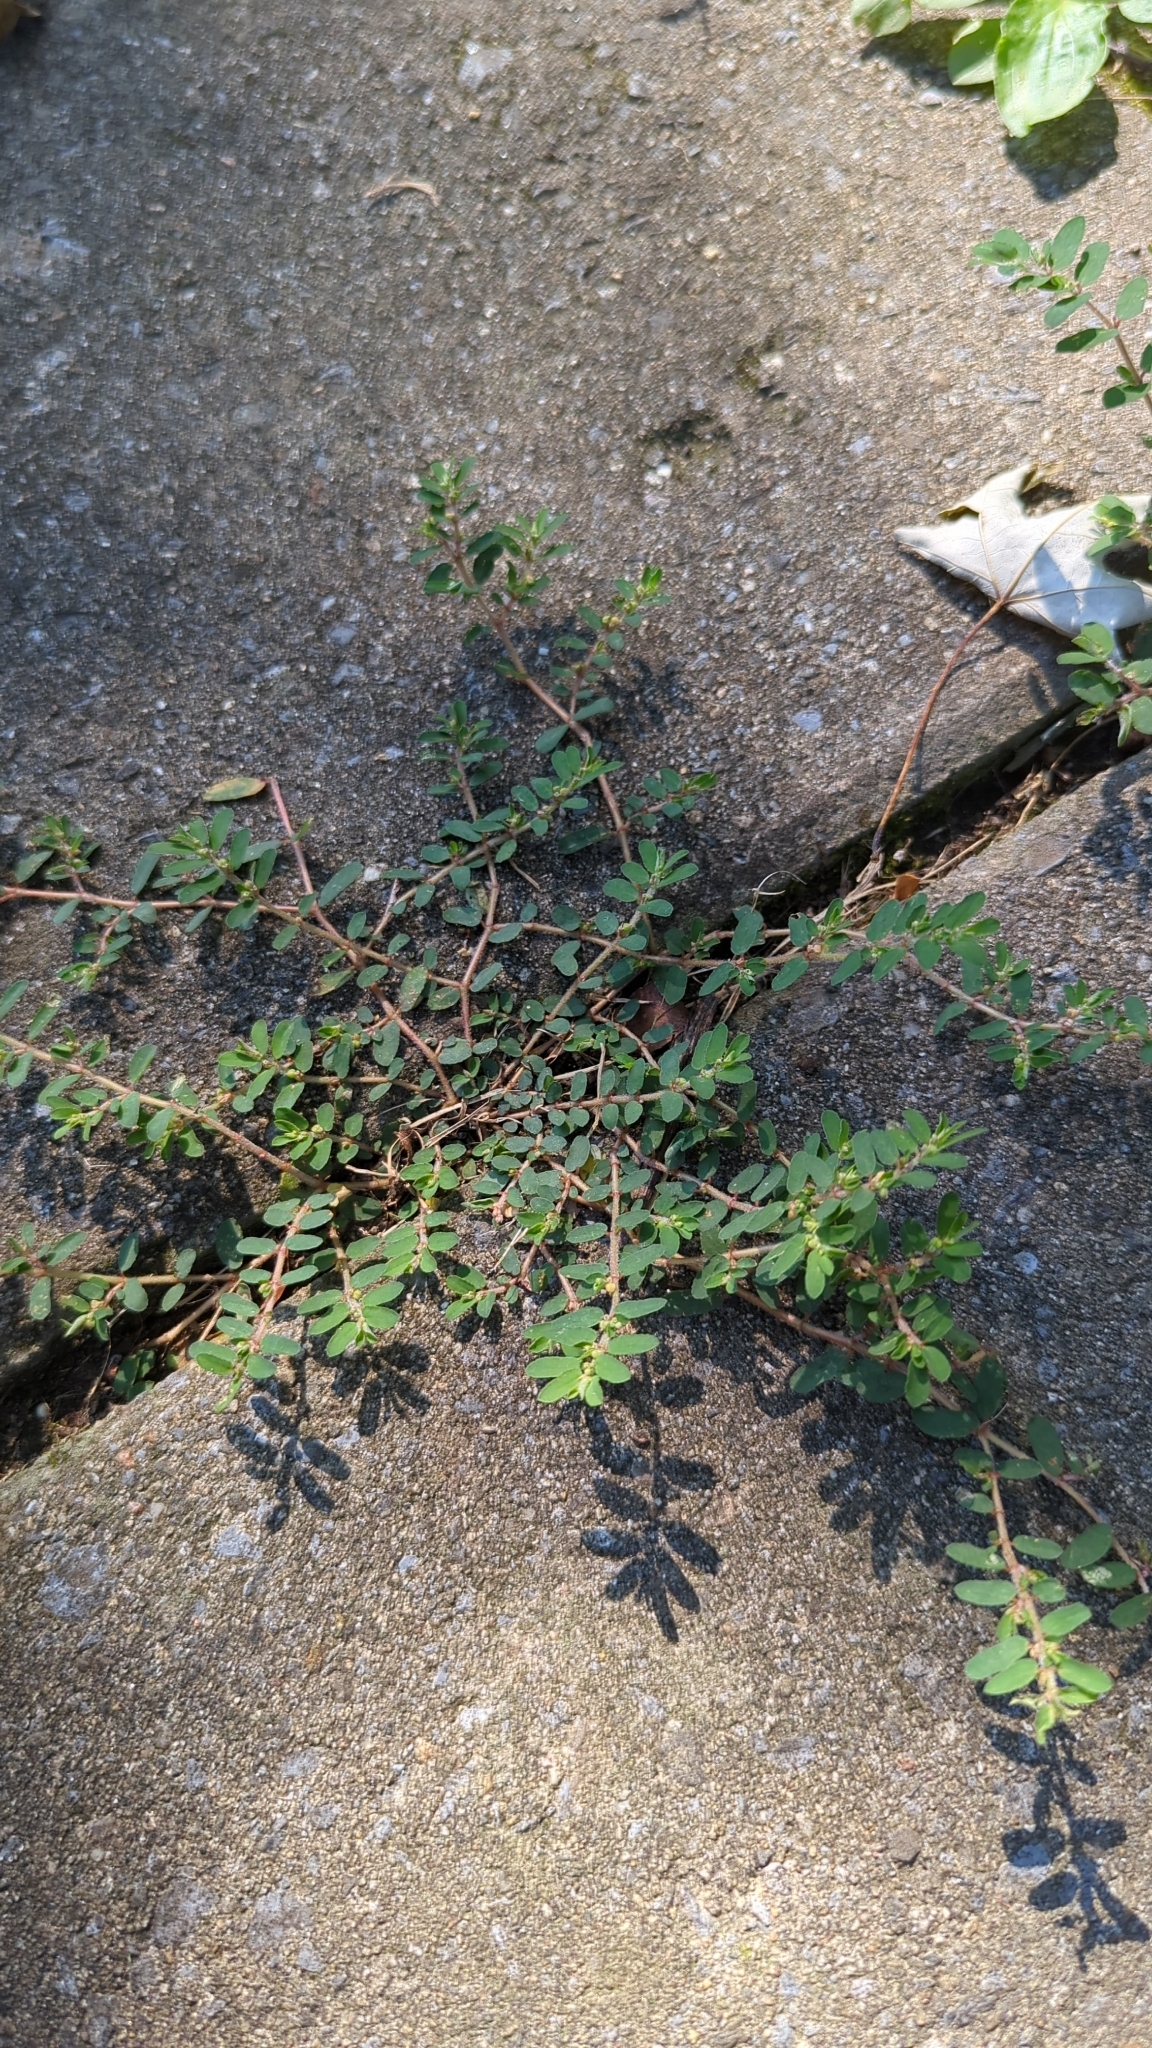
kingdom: Plantae
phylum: Tracheophyta
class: Magnoliopsida
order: Malpighiales
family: Euphorbiaceae
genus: Euphorbia
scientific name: Euphorbia maculata
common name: Spotted spurge
